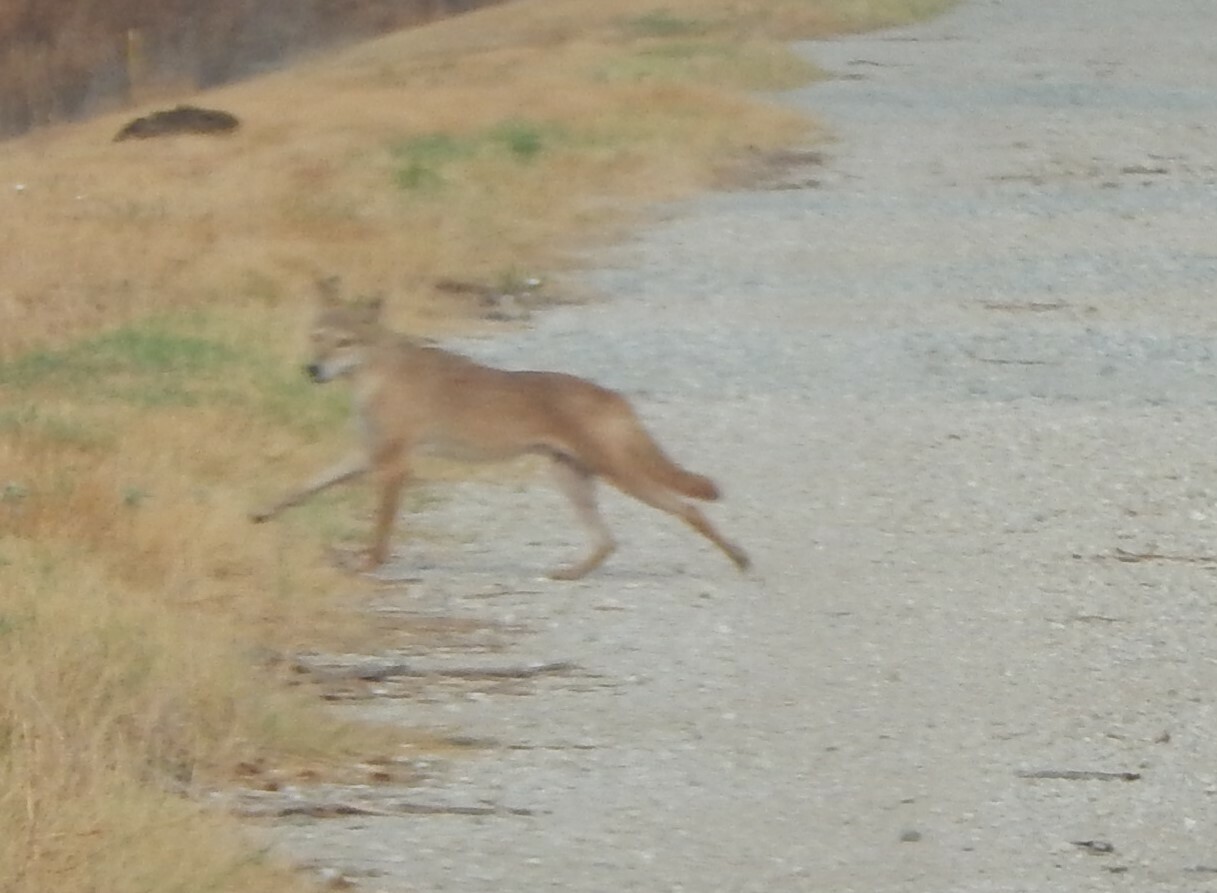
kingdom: Animalia
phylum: Chordata
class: Mammalia
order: Carnivora
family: Canidae
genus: Canis
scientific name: Canis latrans
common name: Coyote
